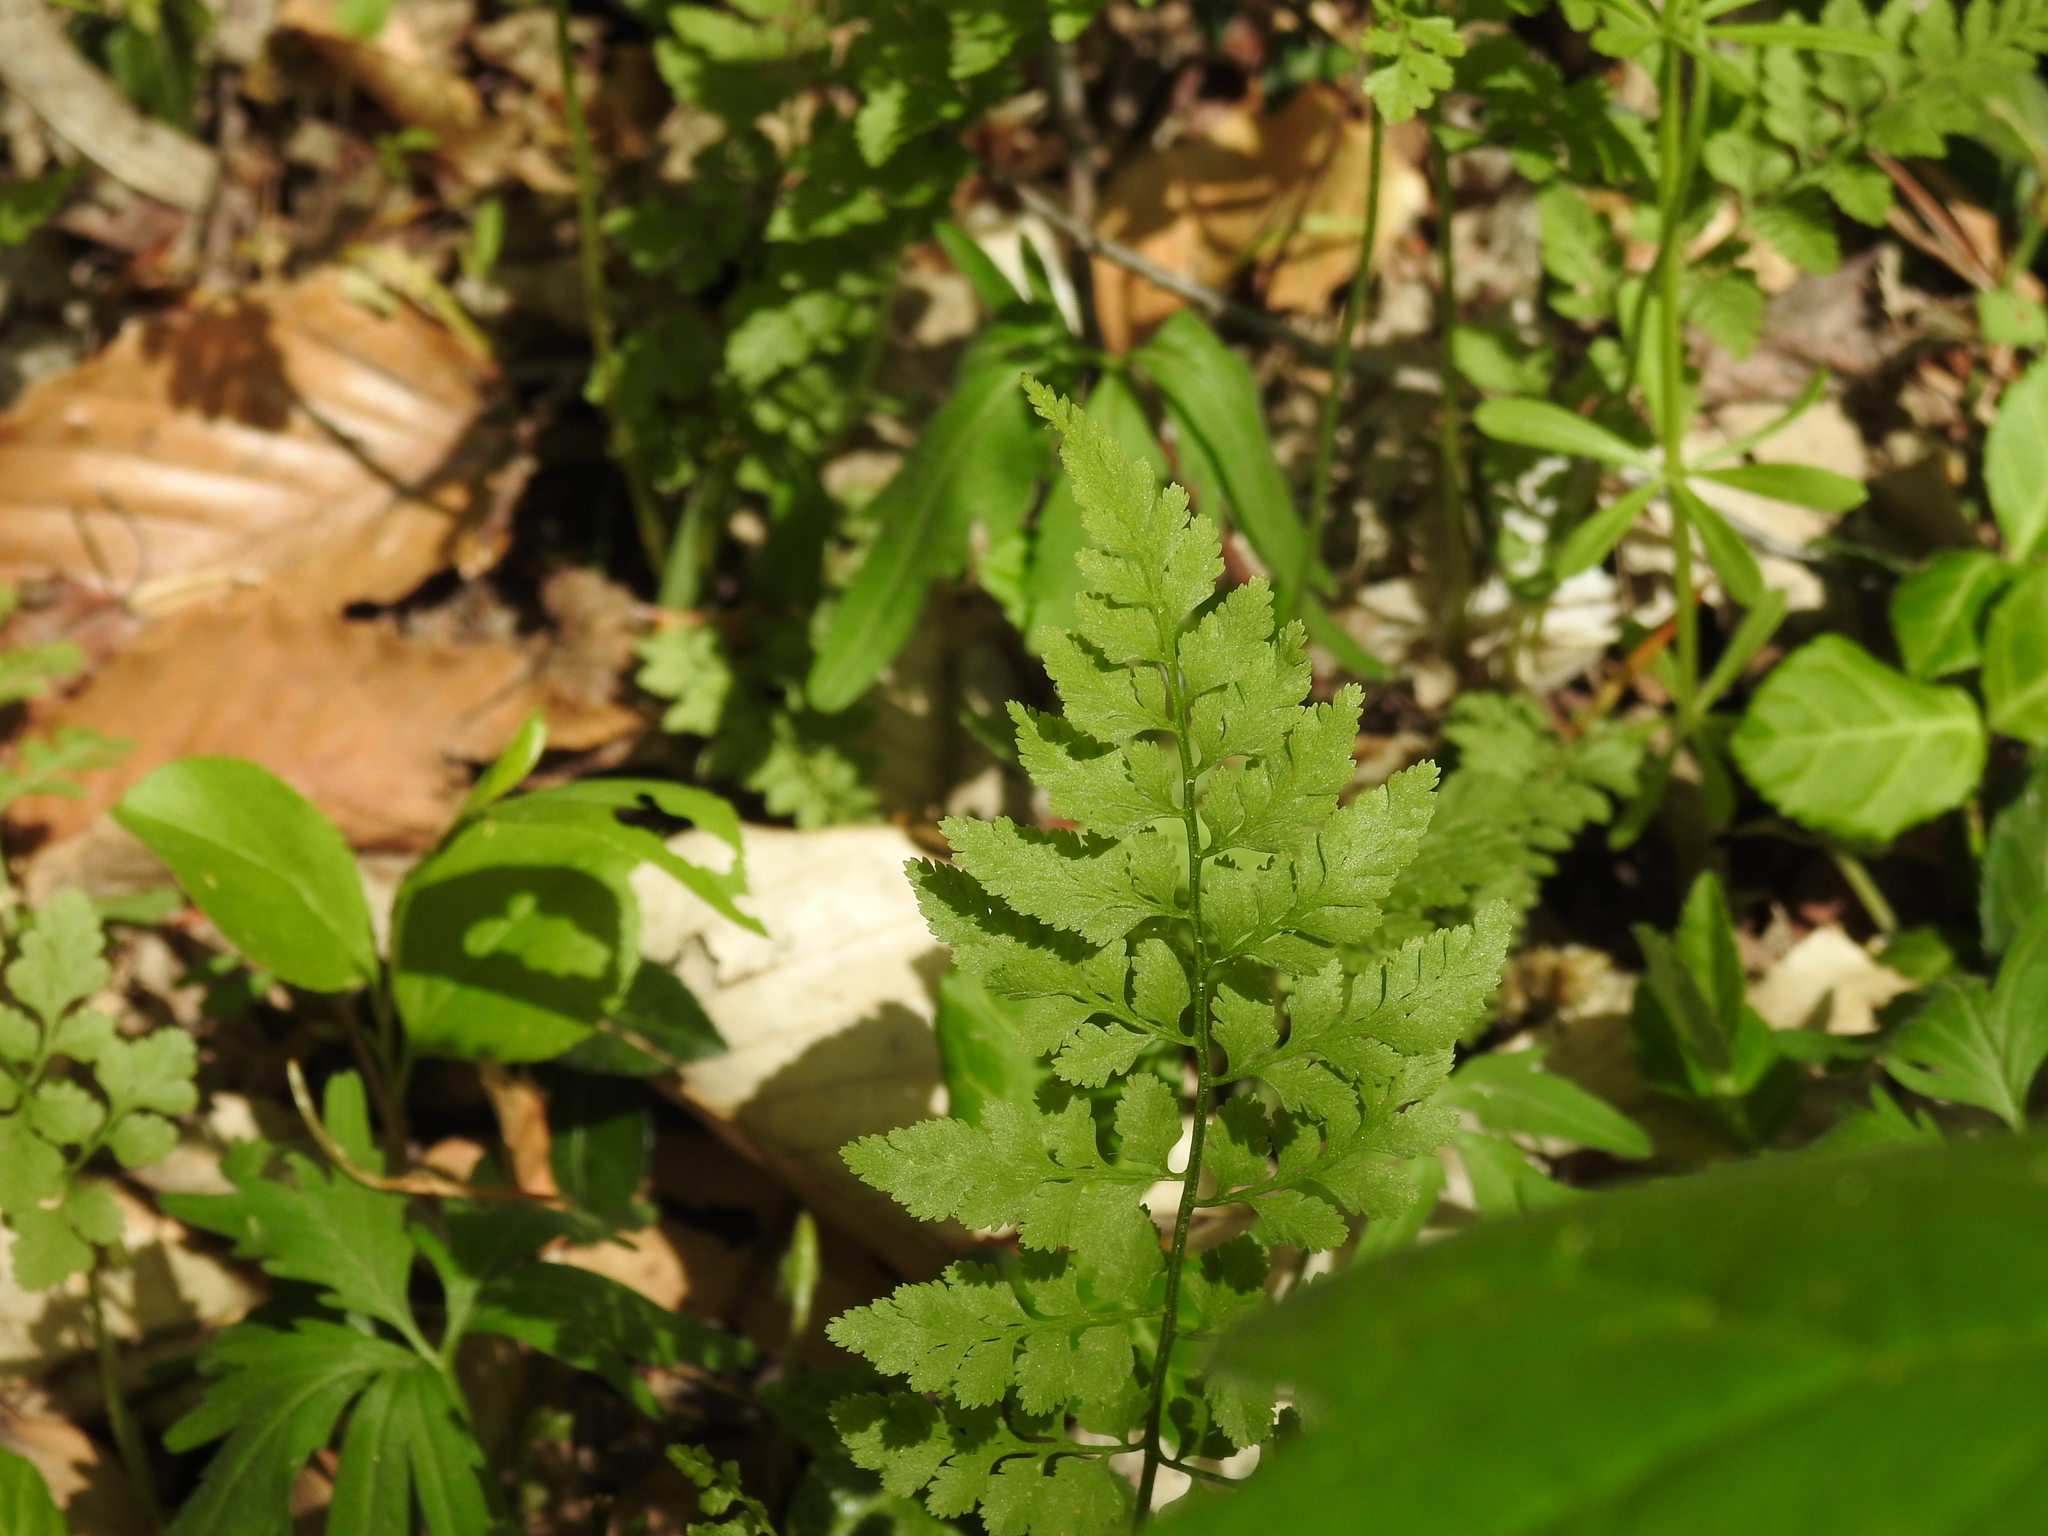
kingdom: Plantae
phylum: Tracheophyta
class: Polypodiopsida
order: Polypodiales
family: Cystopteridaceae
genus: Cystopteris
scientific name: Cystopteris protrusa
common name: Lowland brittle fern
